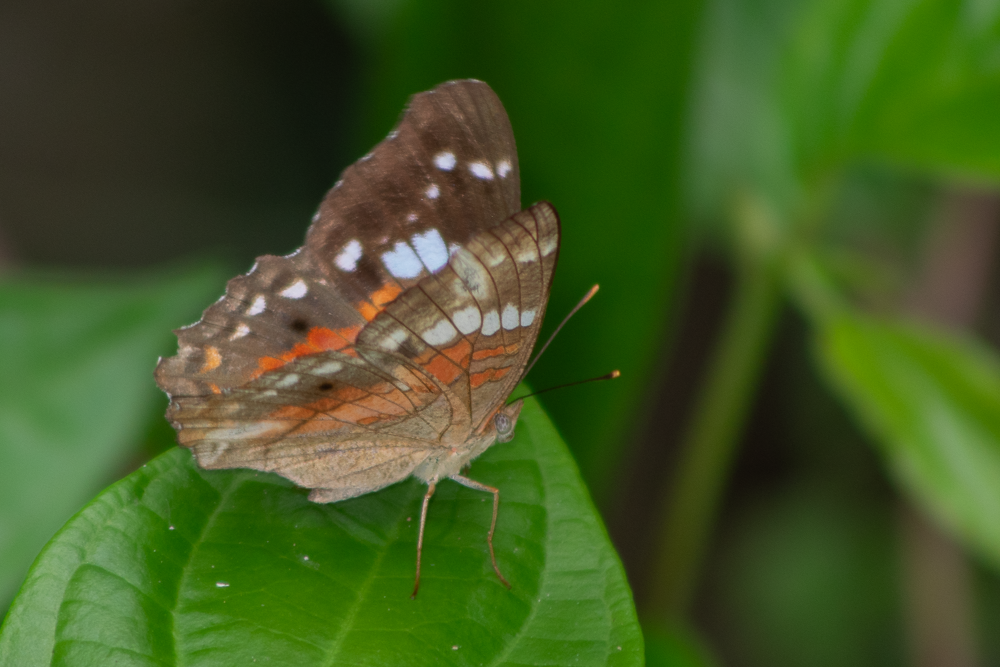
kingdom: Animalia
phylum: Arthropoda
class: Insecta
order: Lepidoptera
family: Nymphalidae
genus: Anartia
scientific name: Anartia amathea
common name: Red peacock
